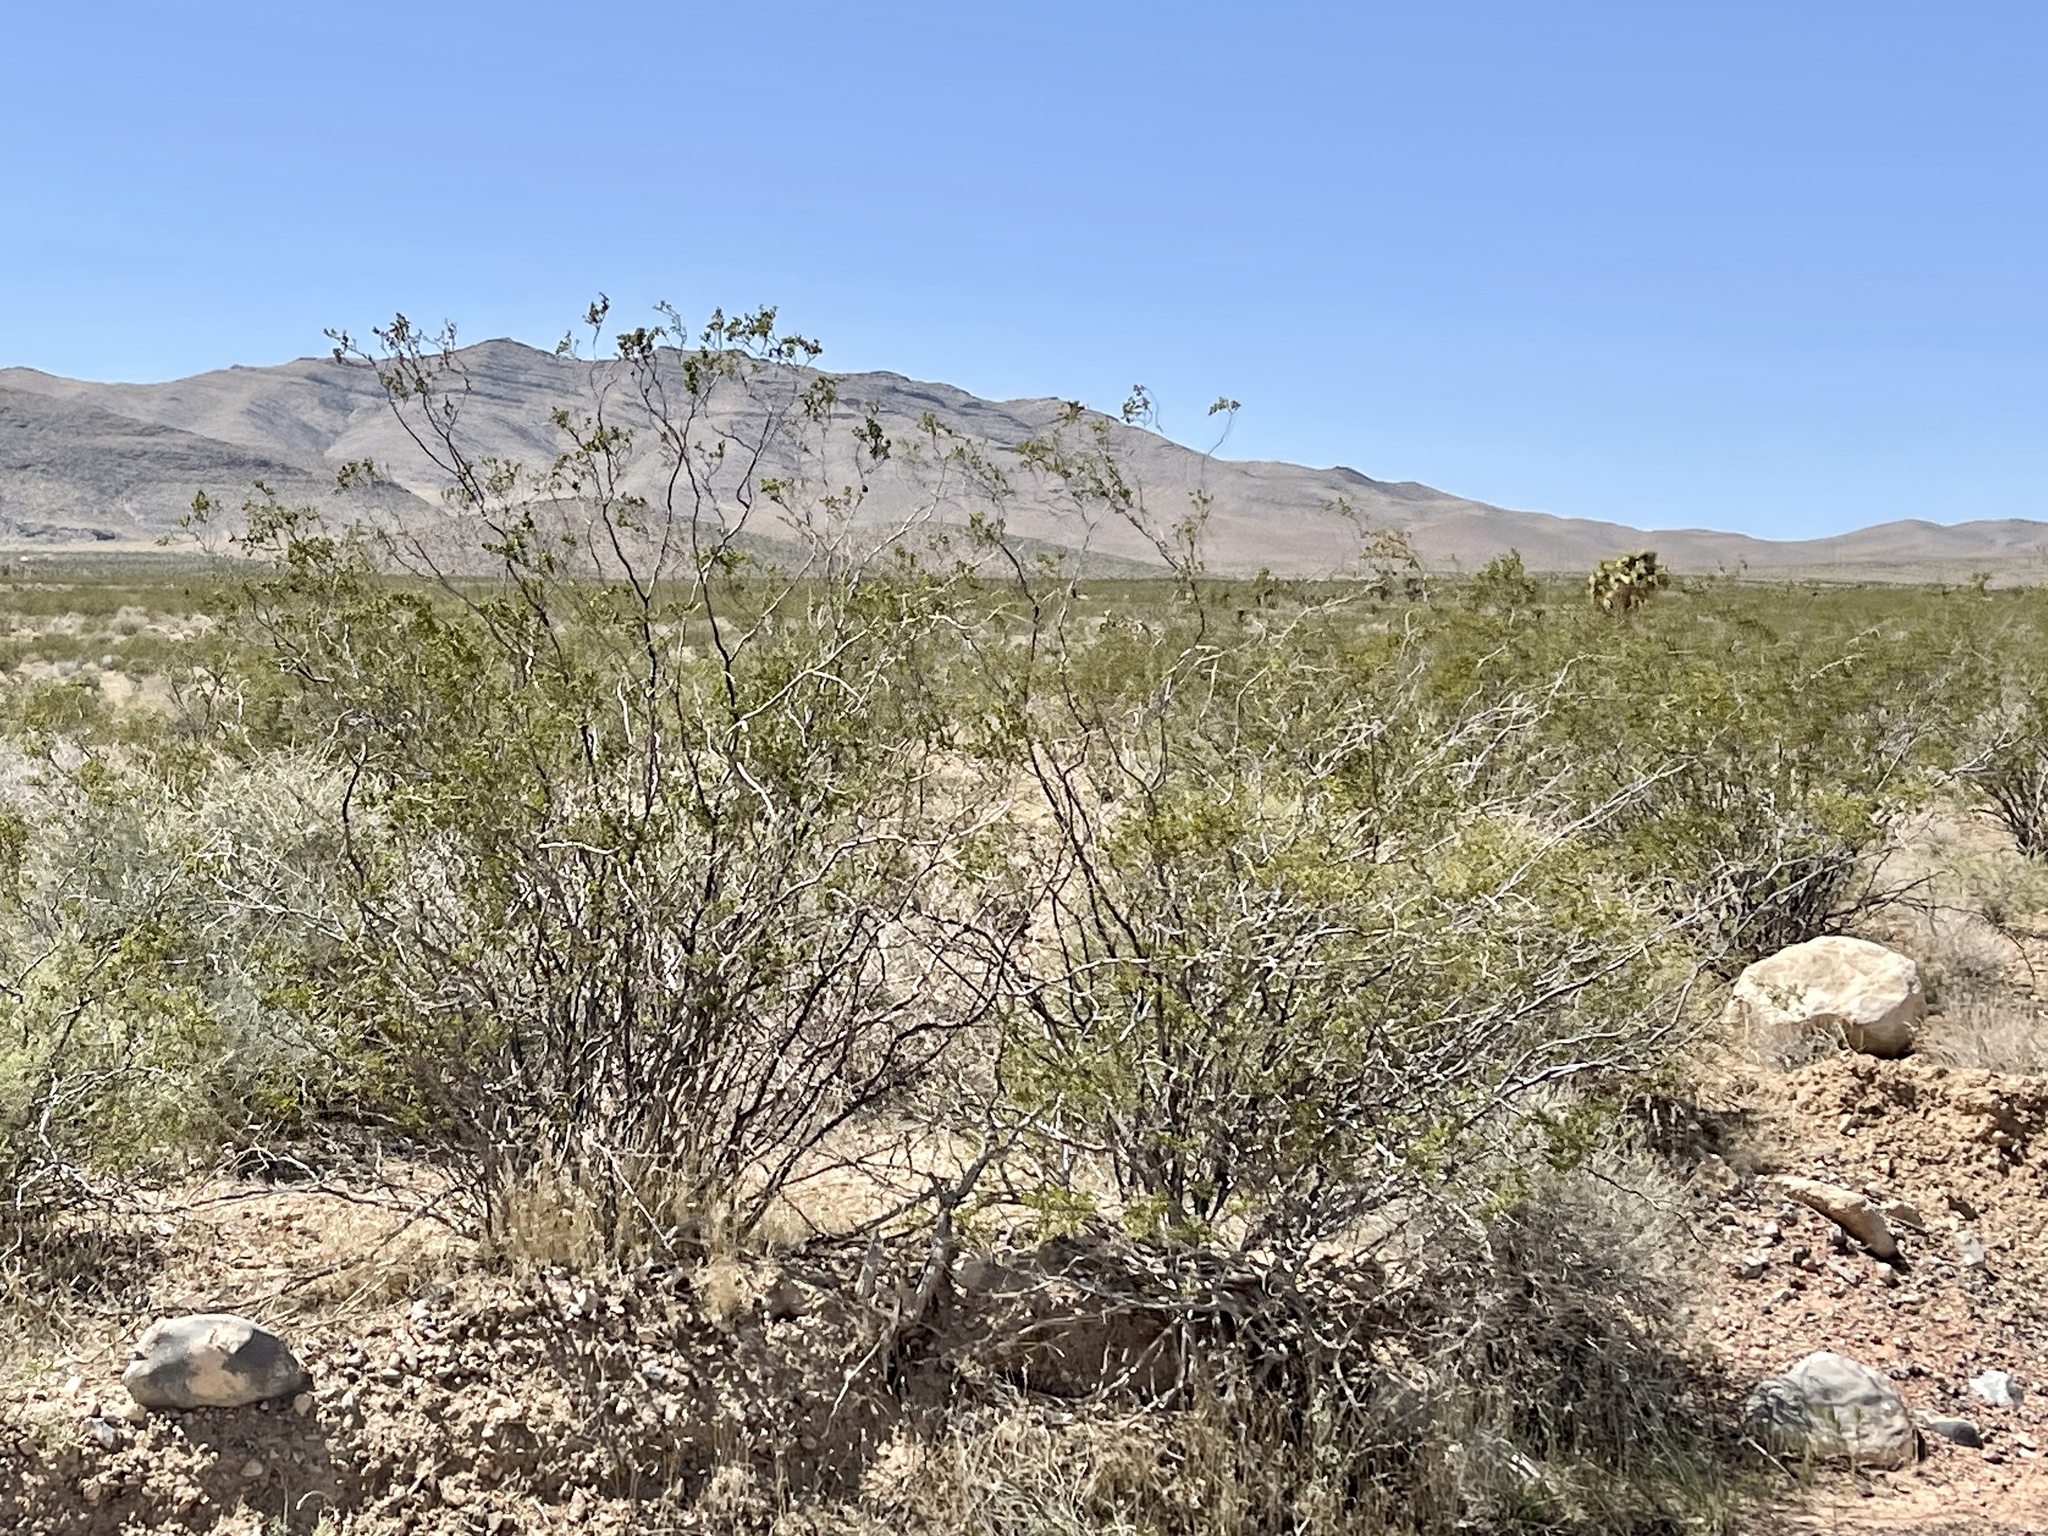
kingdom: Plantae
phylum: Tracheophyta
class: Magnoliopsida
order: Zygophyllales
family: Zygophyllaceae
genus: Larrea
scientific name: Larrea tridentata
